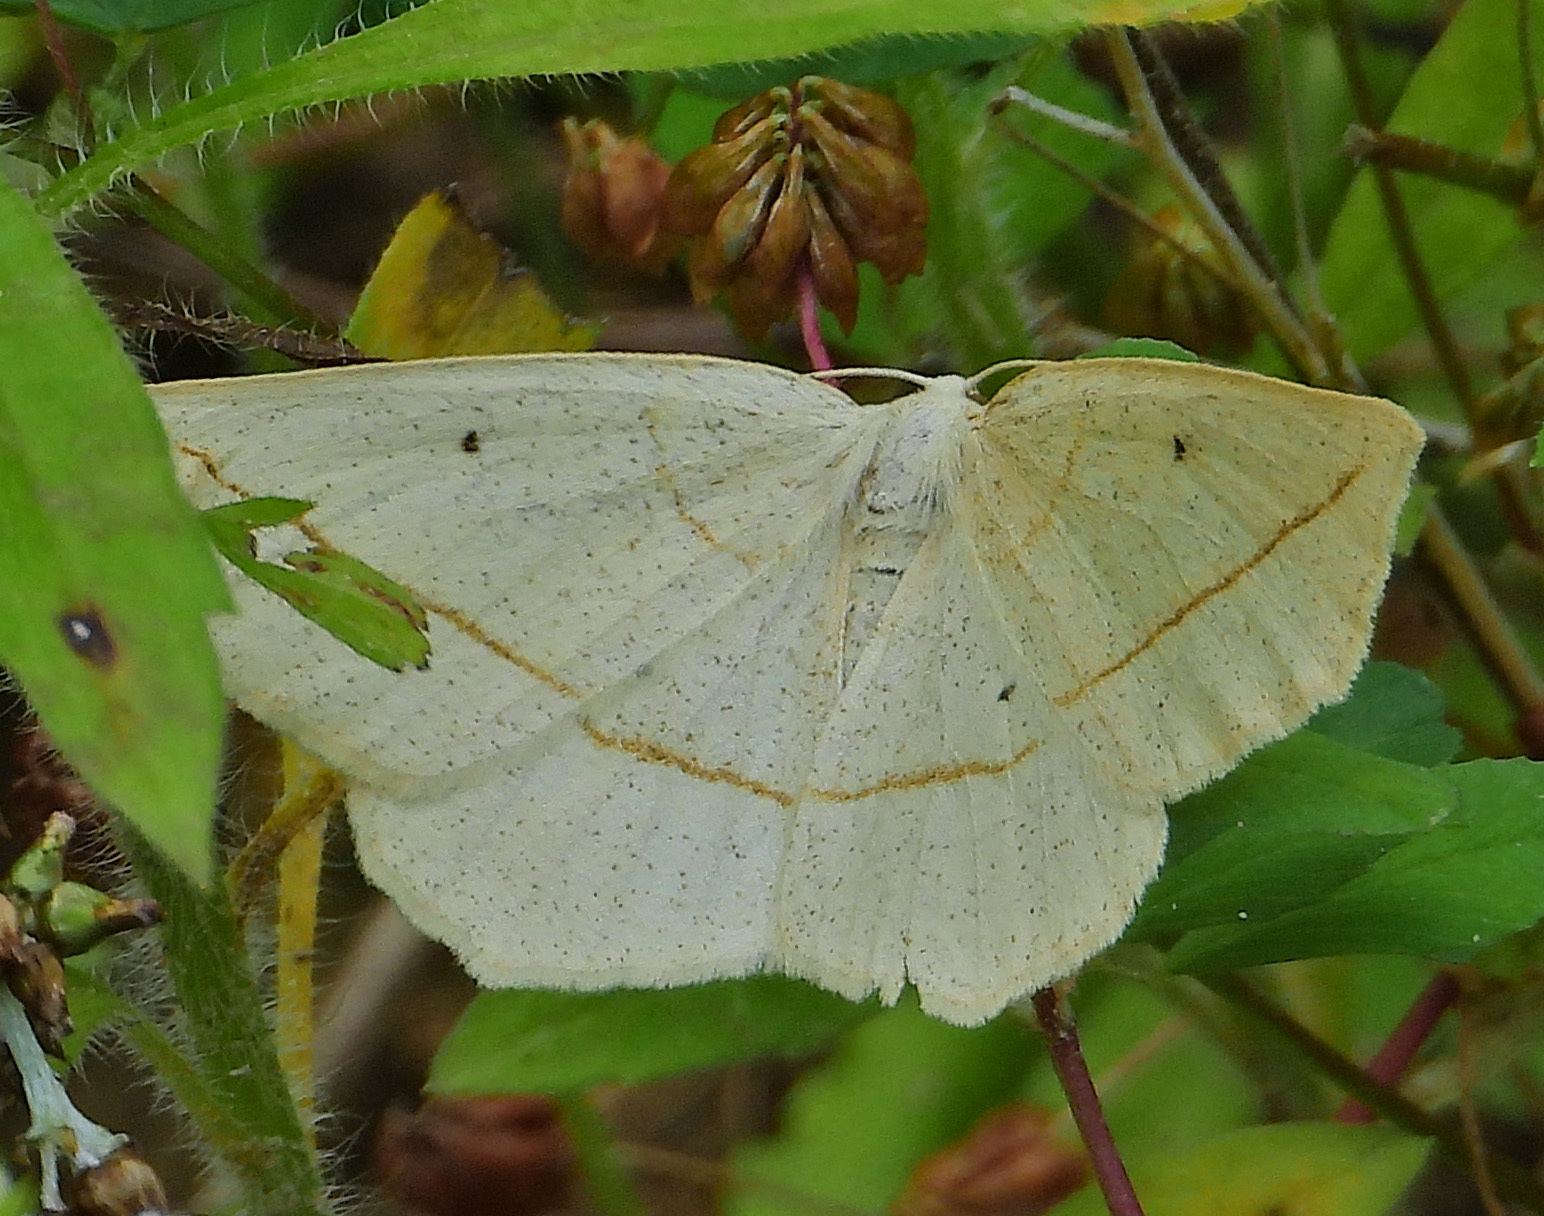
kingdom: Animalia
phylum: Arthropoda
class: Insecta
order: Lepidoptera
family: Geometridae
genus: Eusarca
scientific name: Eusarca confusaria
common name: Confused eusarca
